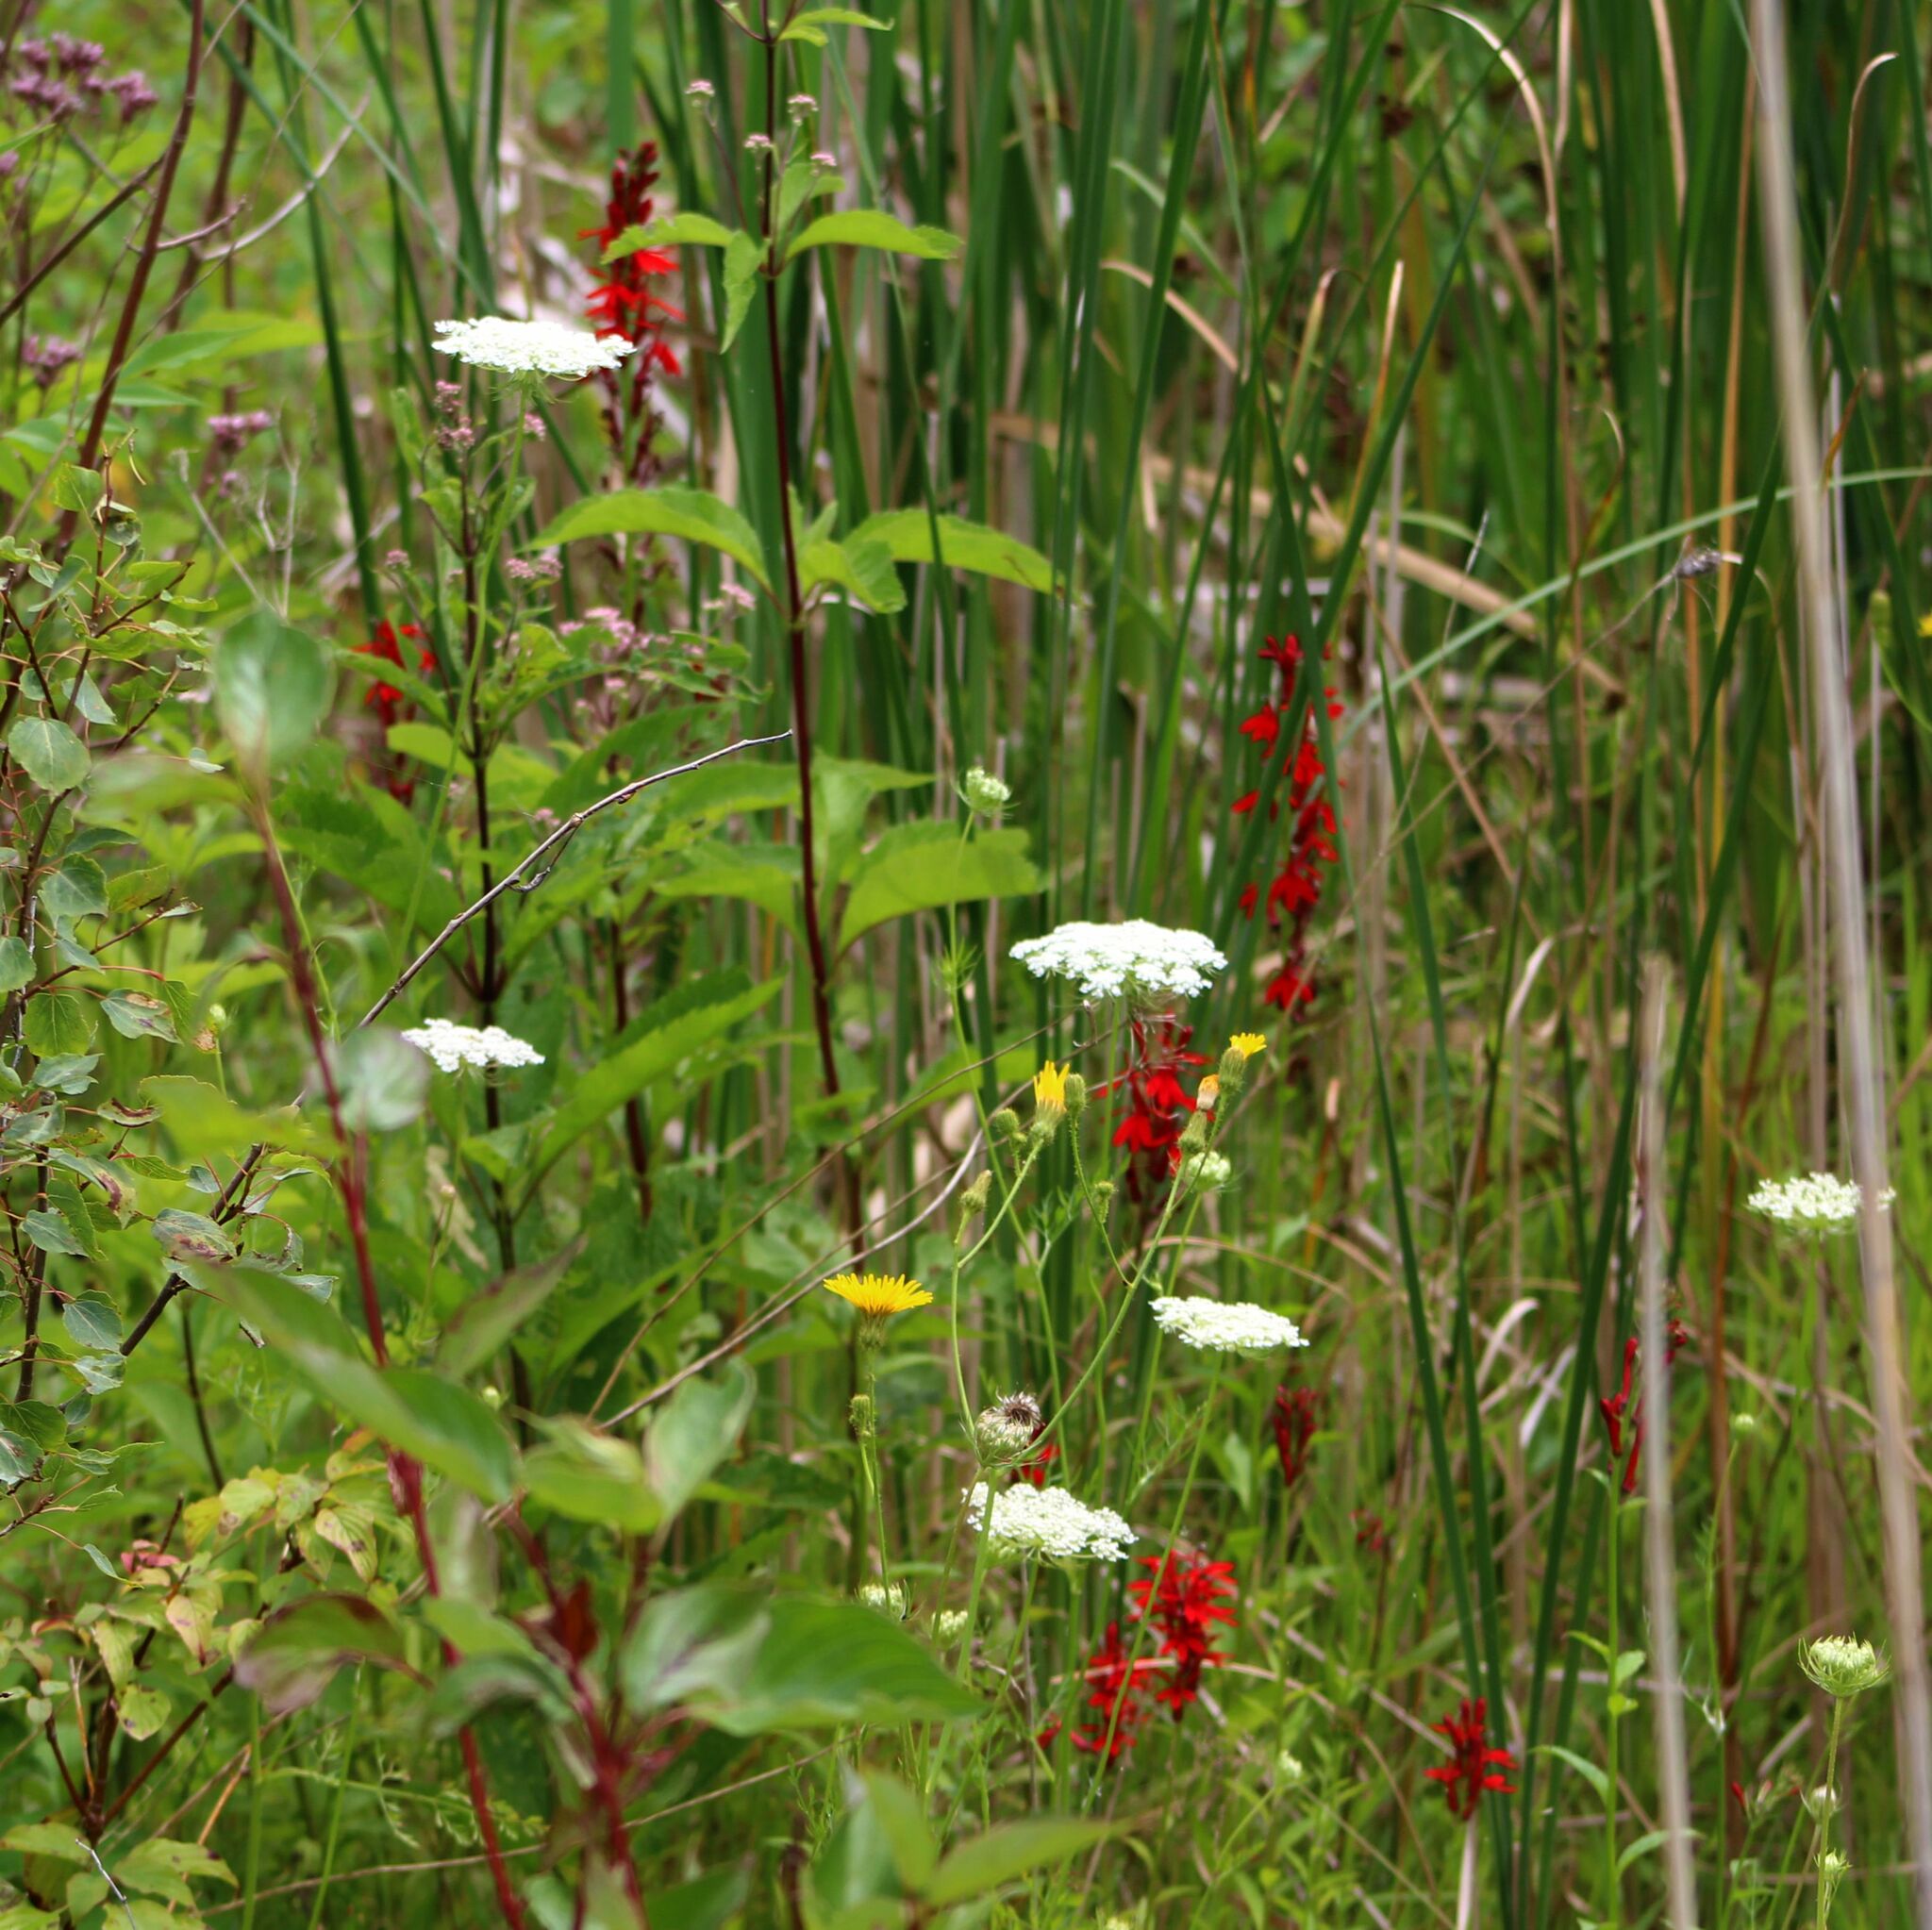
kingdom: Plantae
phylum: Tracheophyta
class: Magnoliopsida
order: Asterales
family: Campanulaceae
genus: Lobelia
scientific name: Lobelia cardinalis
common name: Cardinal flower
